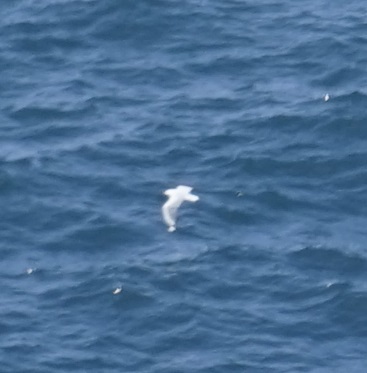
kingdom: Animalia
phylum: Chordata
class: Aves
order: Charadriiformes
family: Laridae
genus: Chroicocephalus
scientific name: Chroicocephalus novaehollandiae
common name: Silver gull
